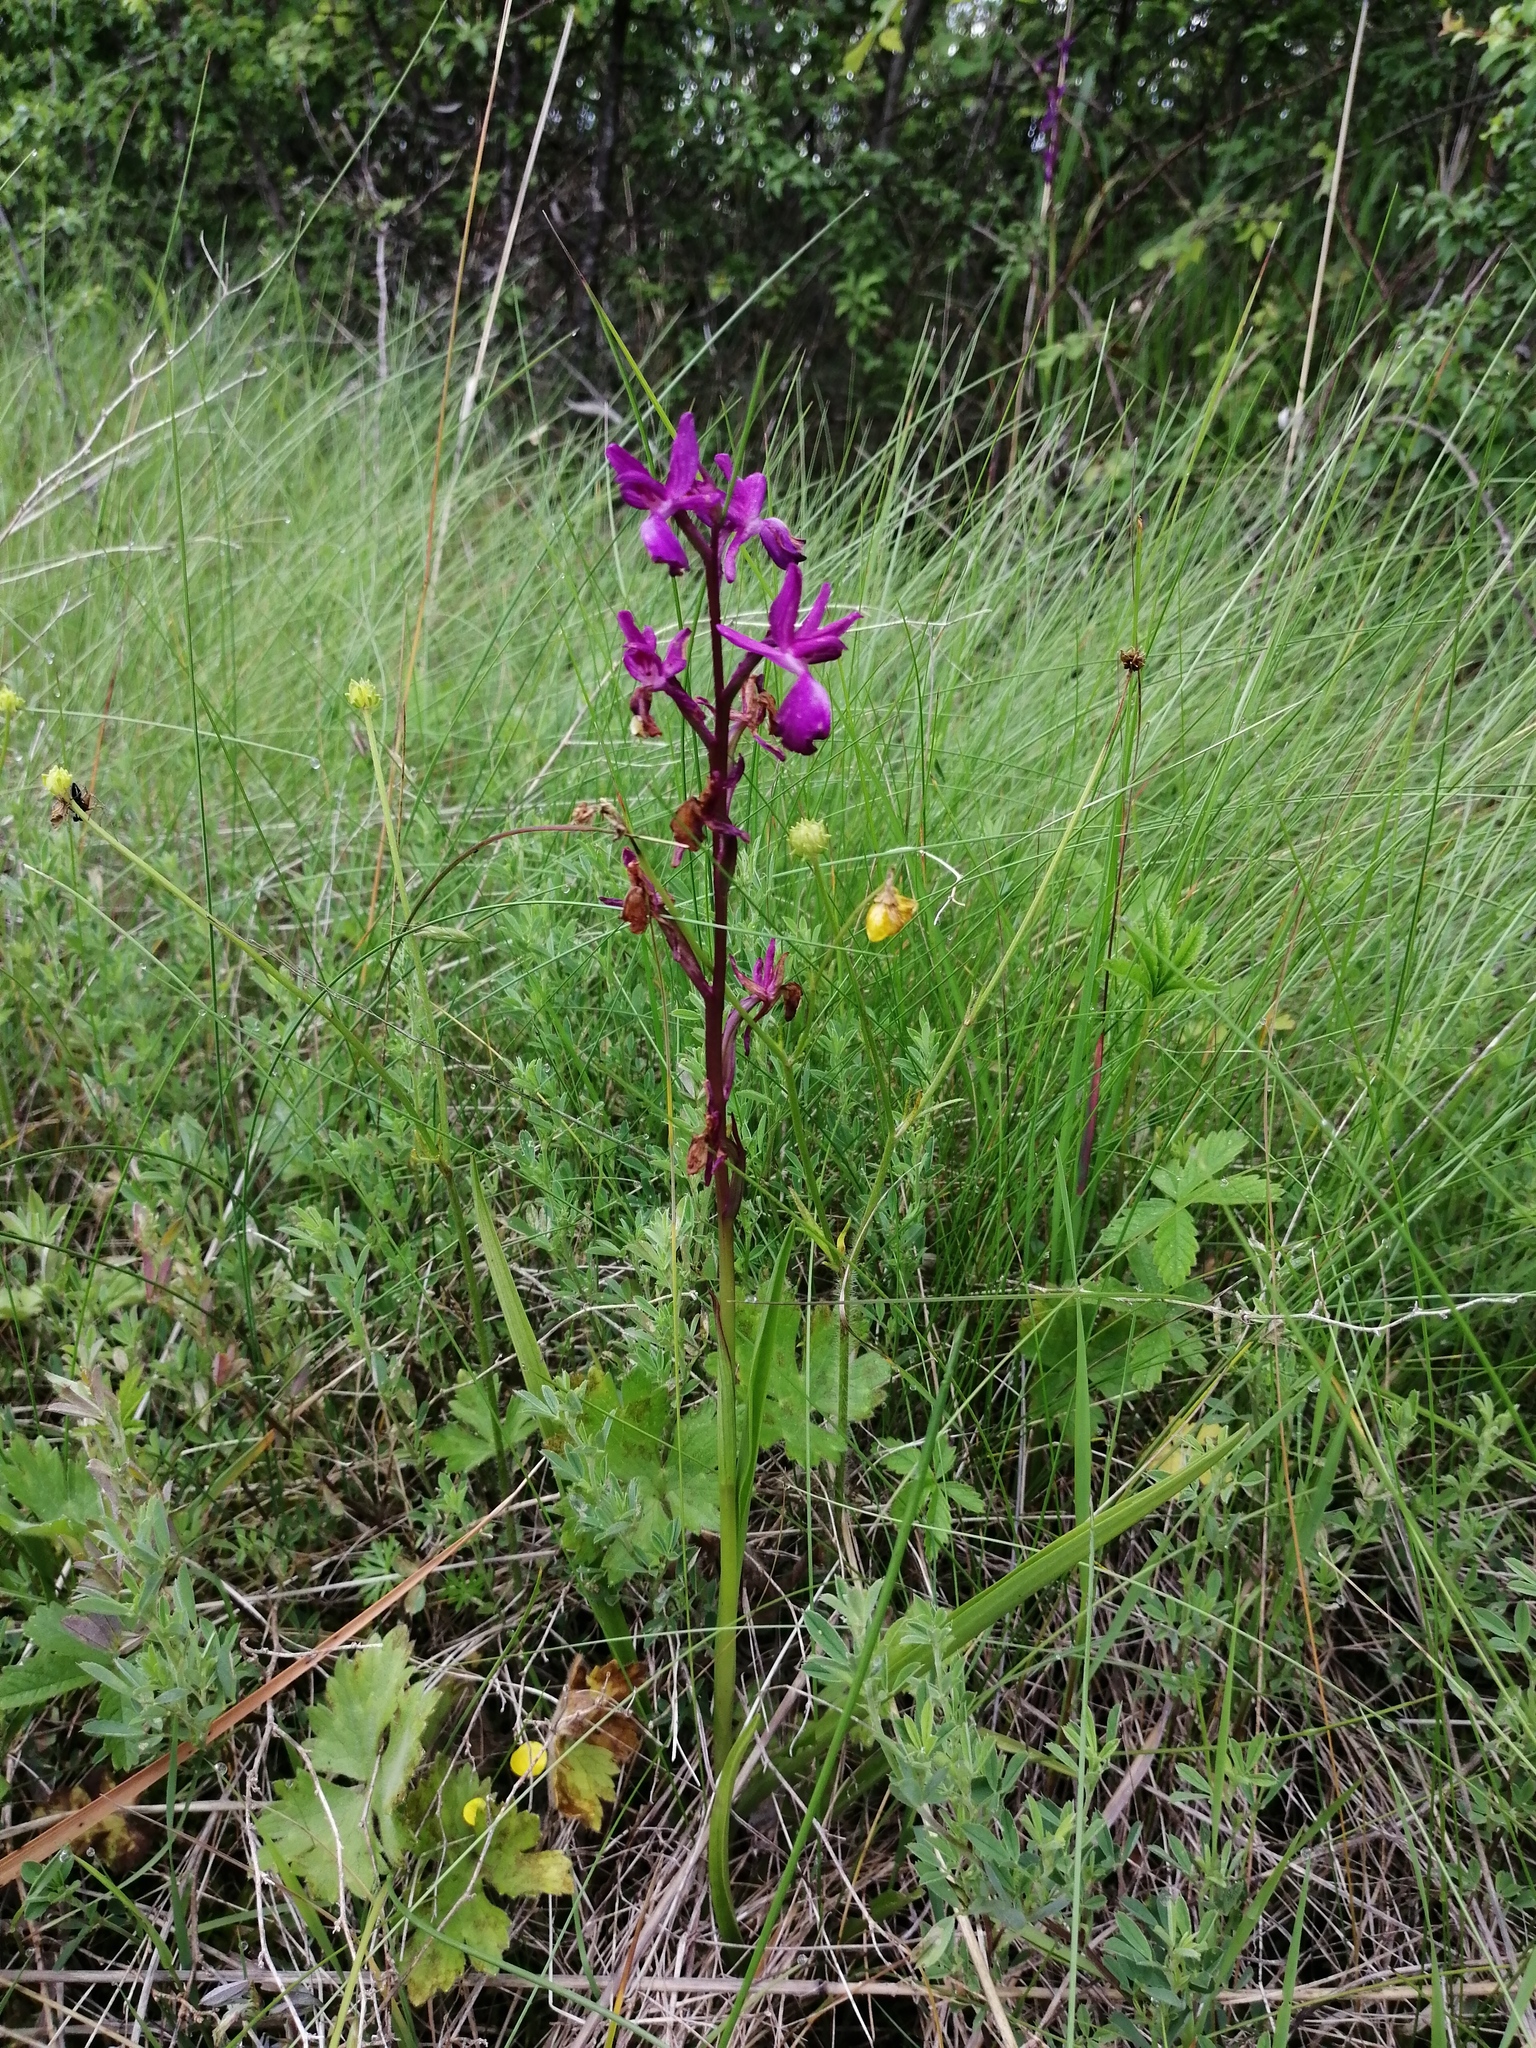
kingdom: Plantae
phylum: Tracheophyta
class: Liliopsida
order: Asparagales
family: Orchidaceae
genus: Anacamptis
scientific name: Anacamptis laxiflora
